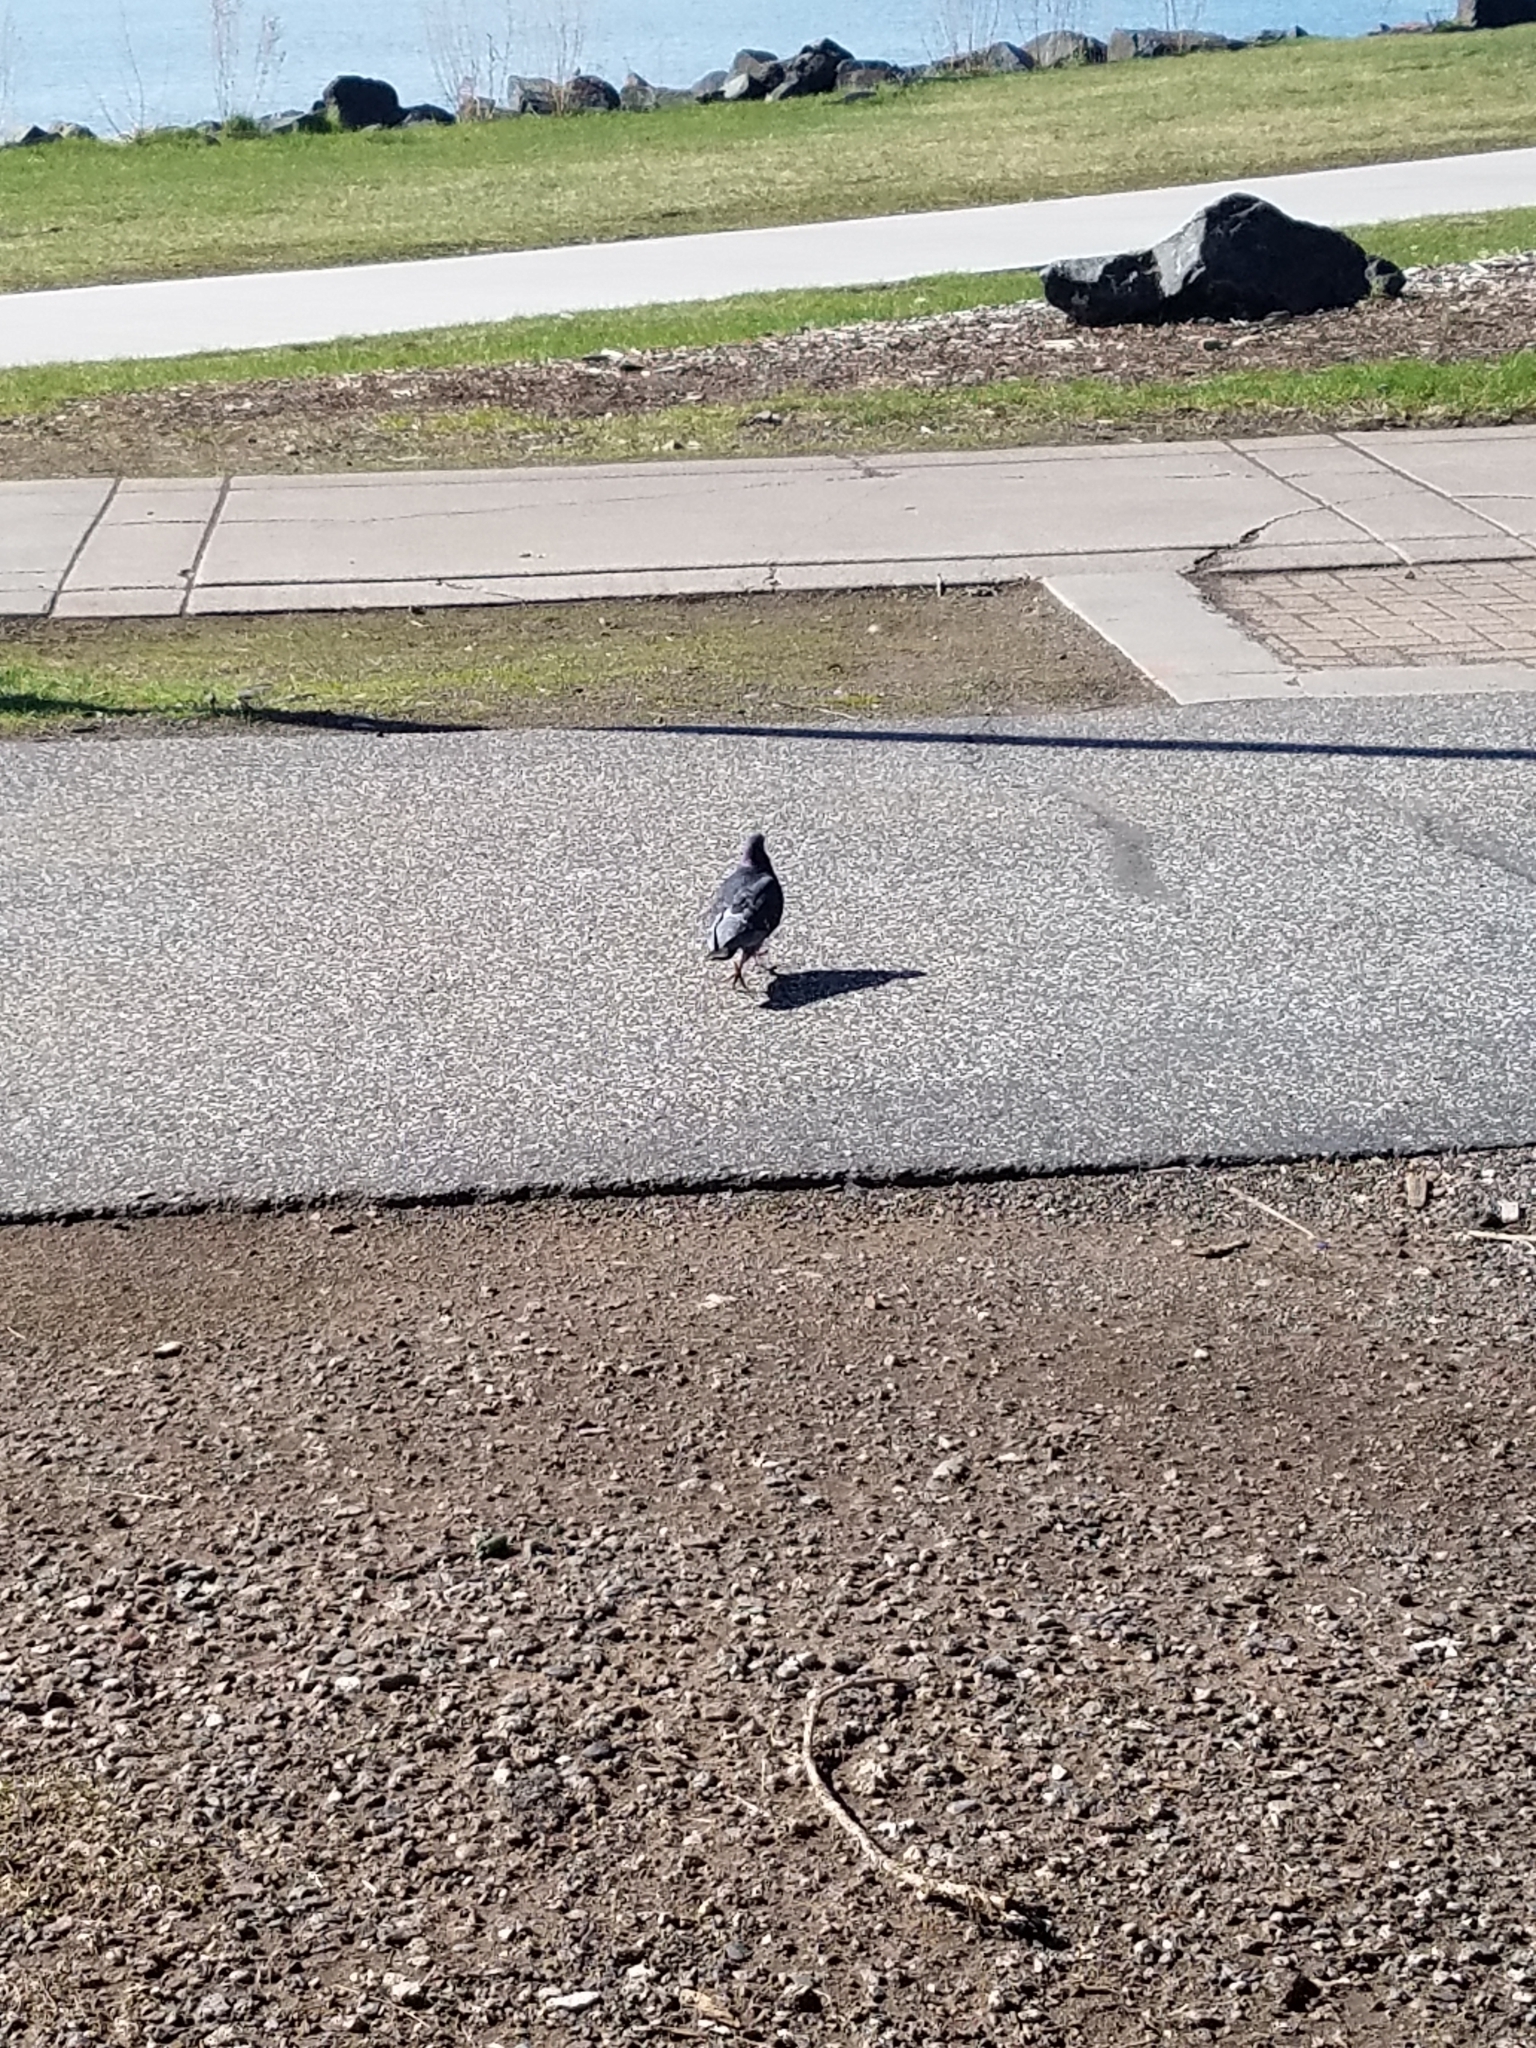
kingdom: Animalia
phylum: Chordata
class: Aves
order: Columbiformes
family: Columbidae
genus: Columba
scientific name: Columba livia
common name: Rock pigeon
